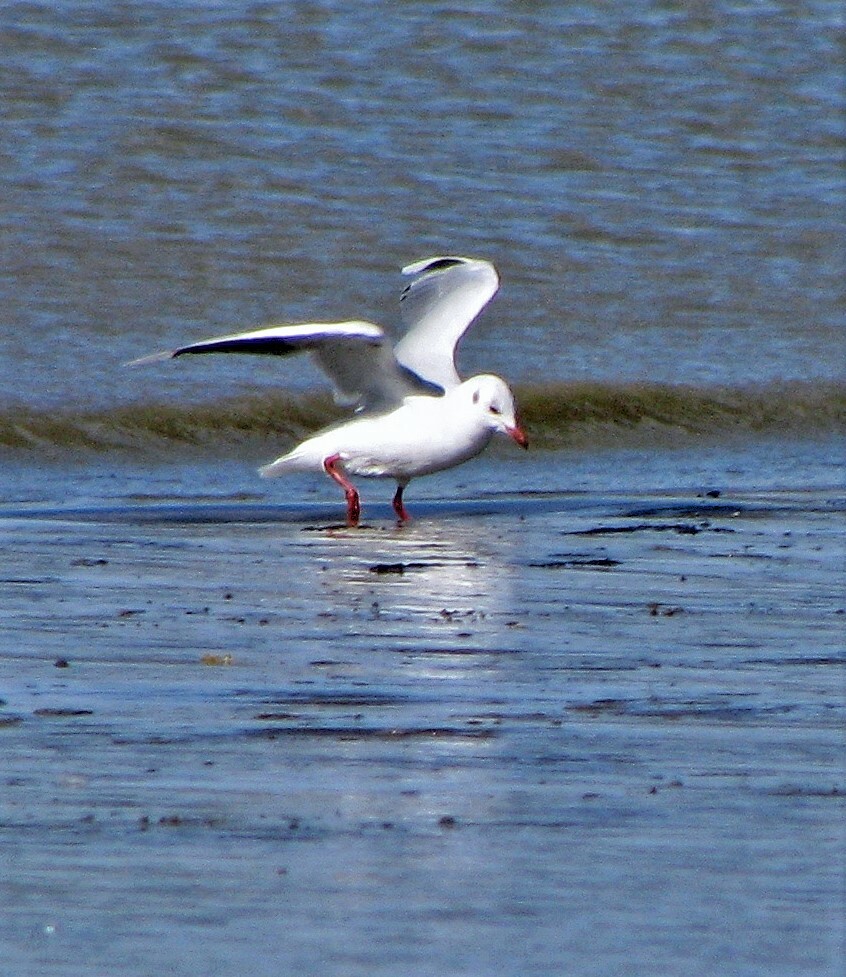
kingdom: Animalia
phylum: Chordata
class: Aves
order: Charadriiformes
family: Laridae
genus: Chroicocephalus
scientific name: Chroicocephalus maculipennis
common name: Brown-hooded gull
